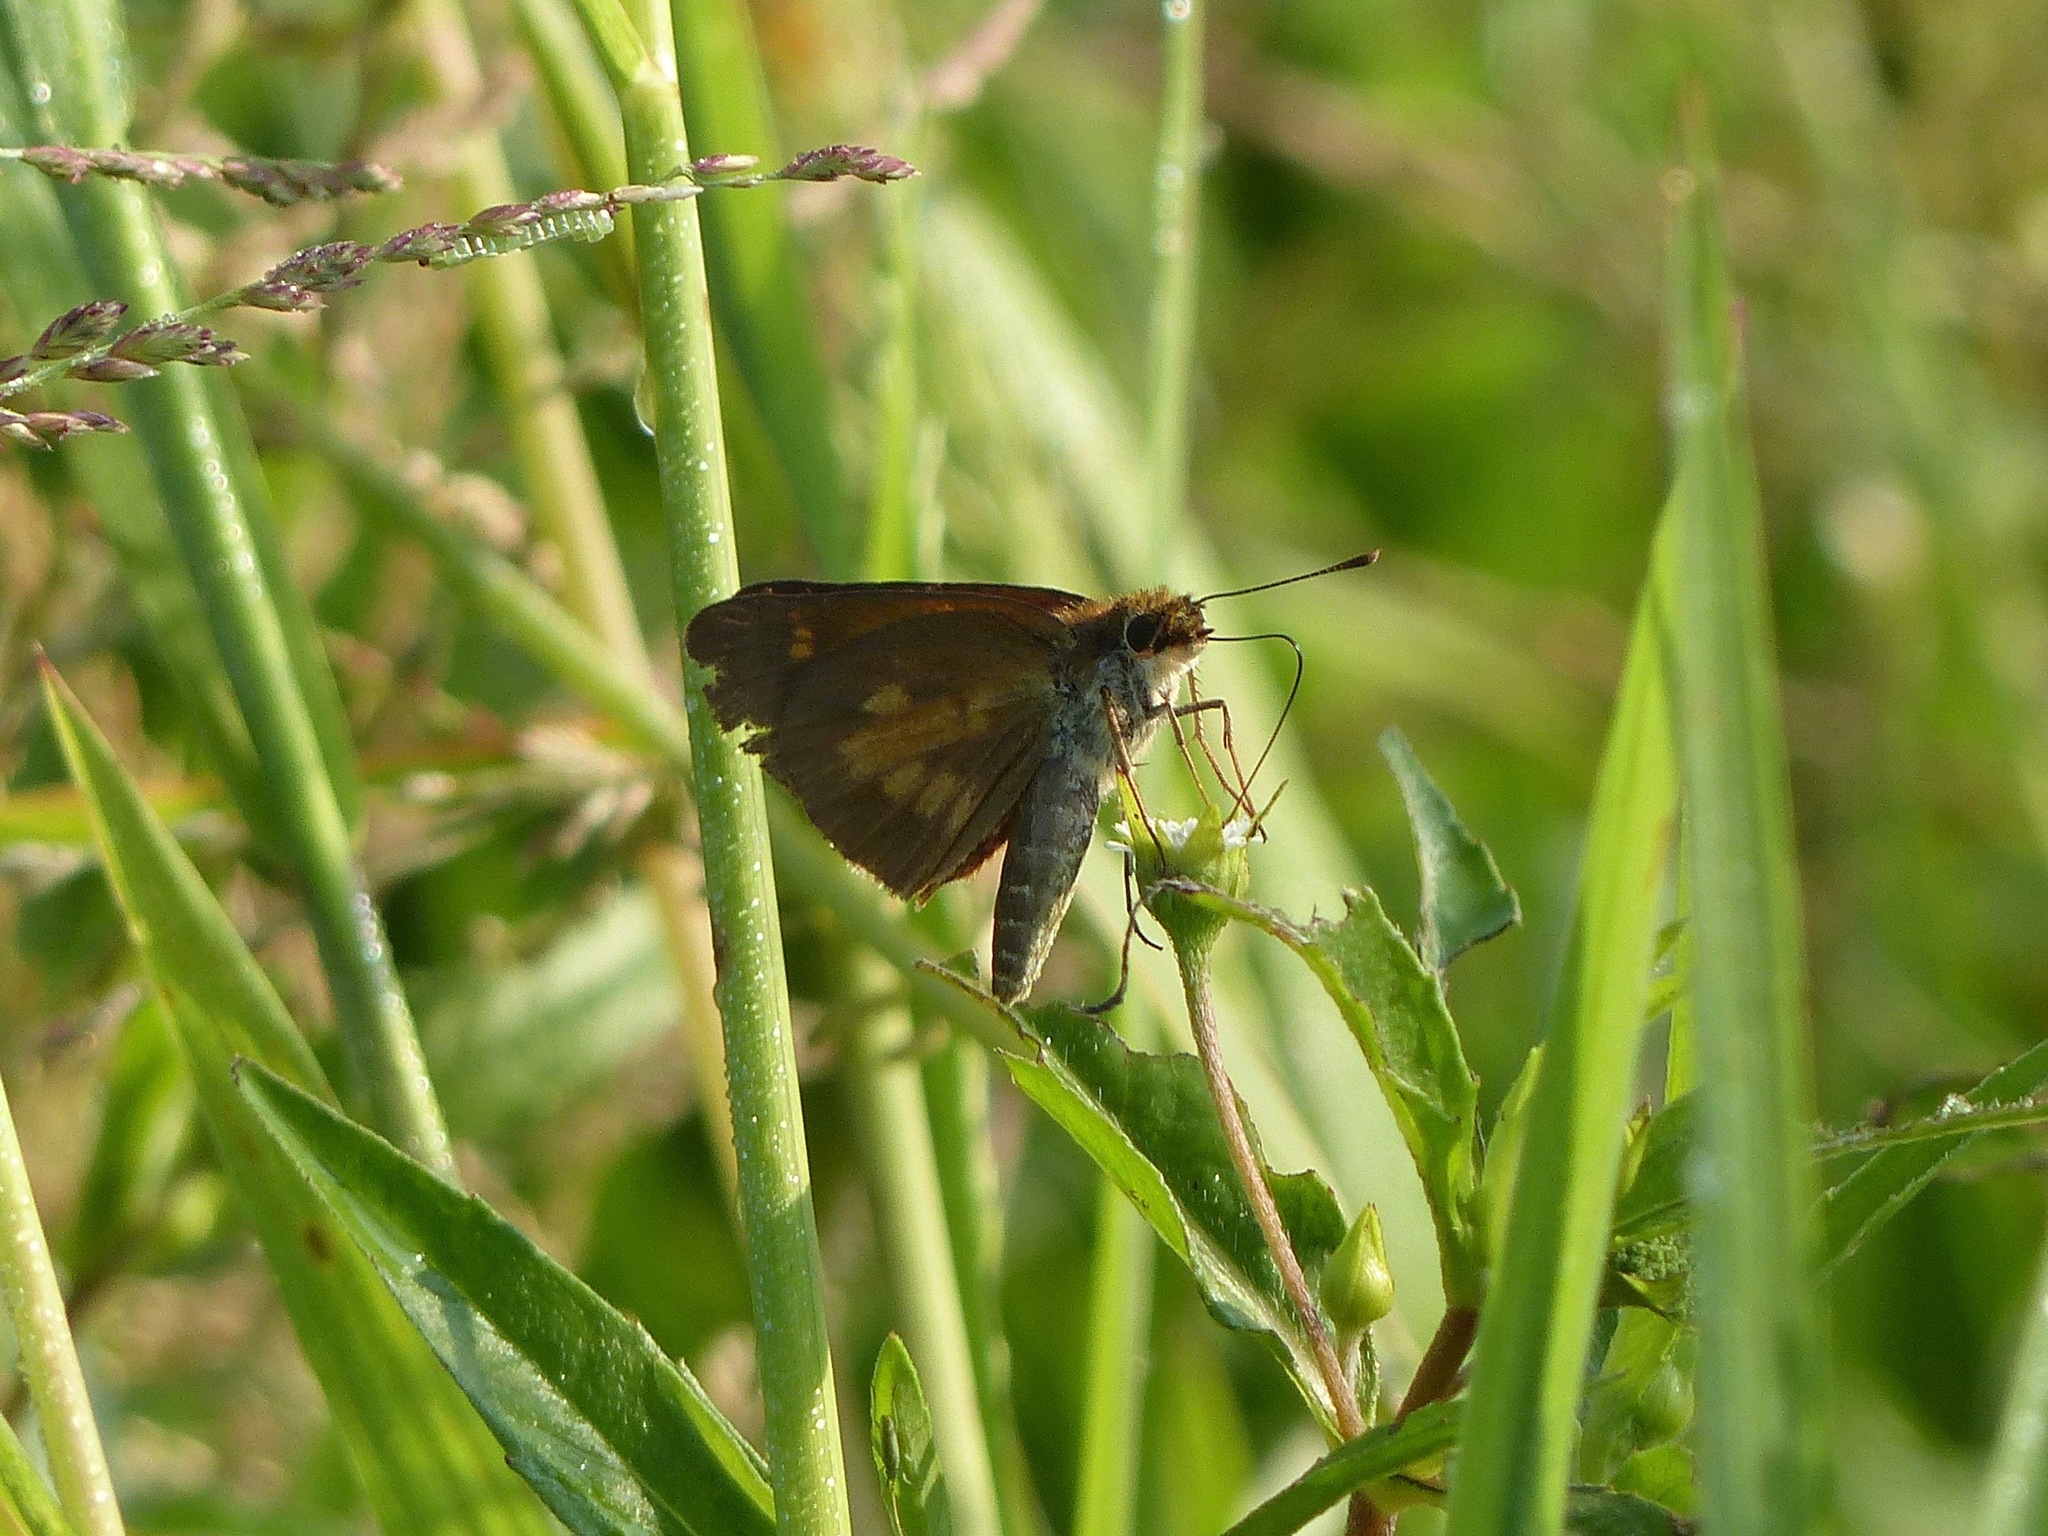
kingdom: Animalia
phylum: Arthropoda
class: Insecta
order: Lepidoptera
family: Hesperiidae
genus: Poanes
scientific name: Poanes viator
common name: Broad-winged skipper
